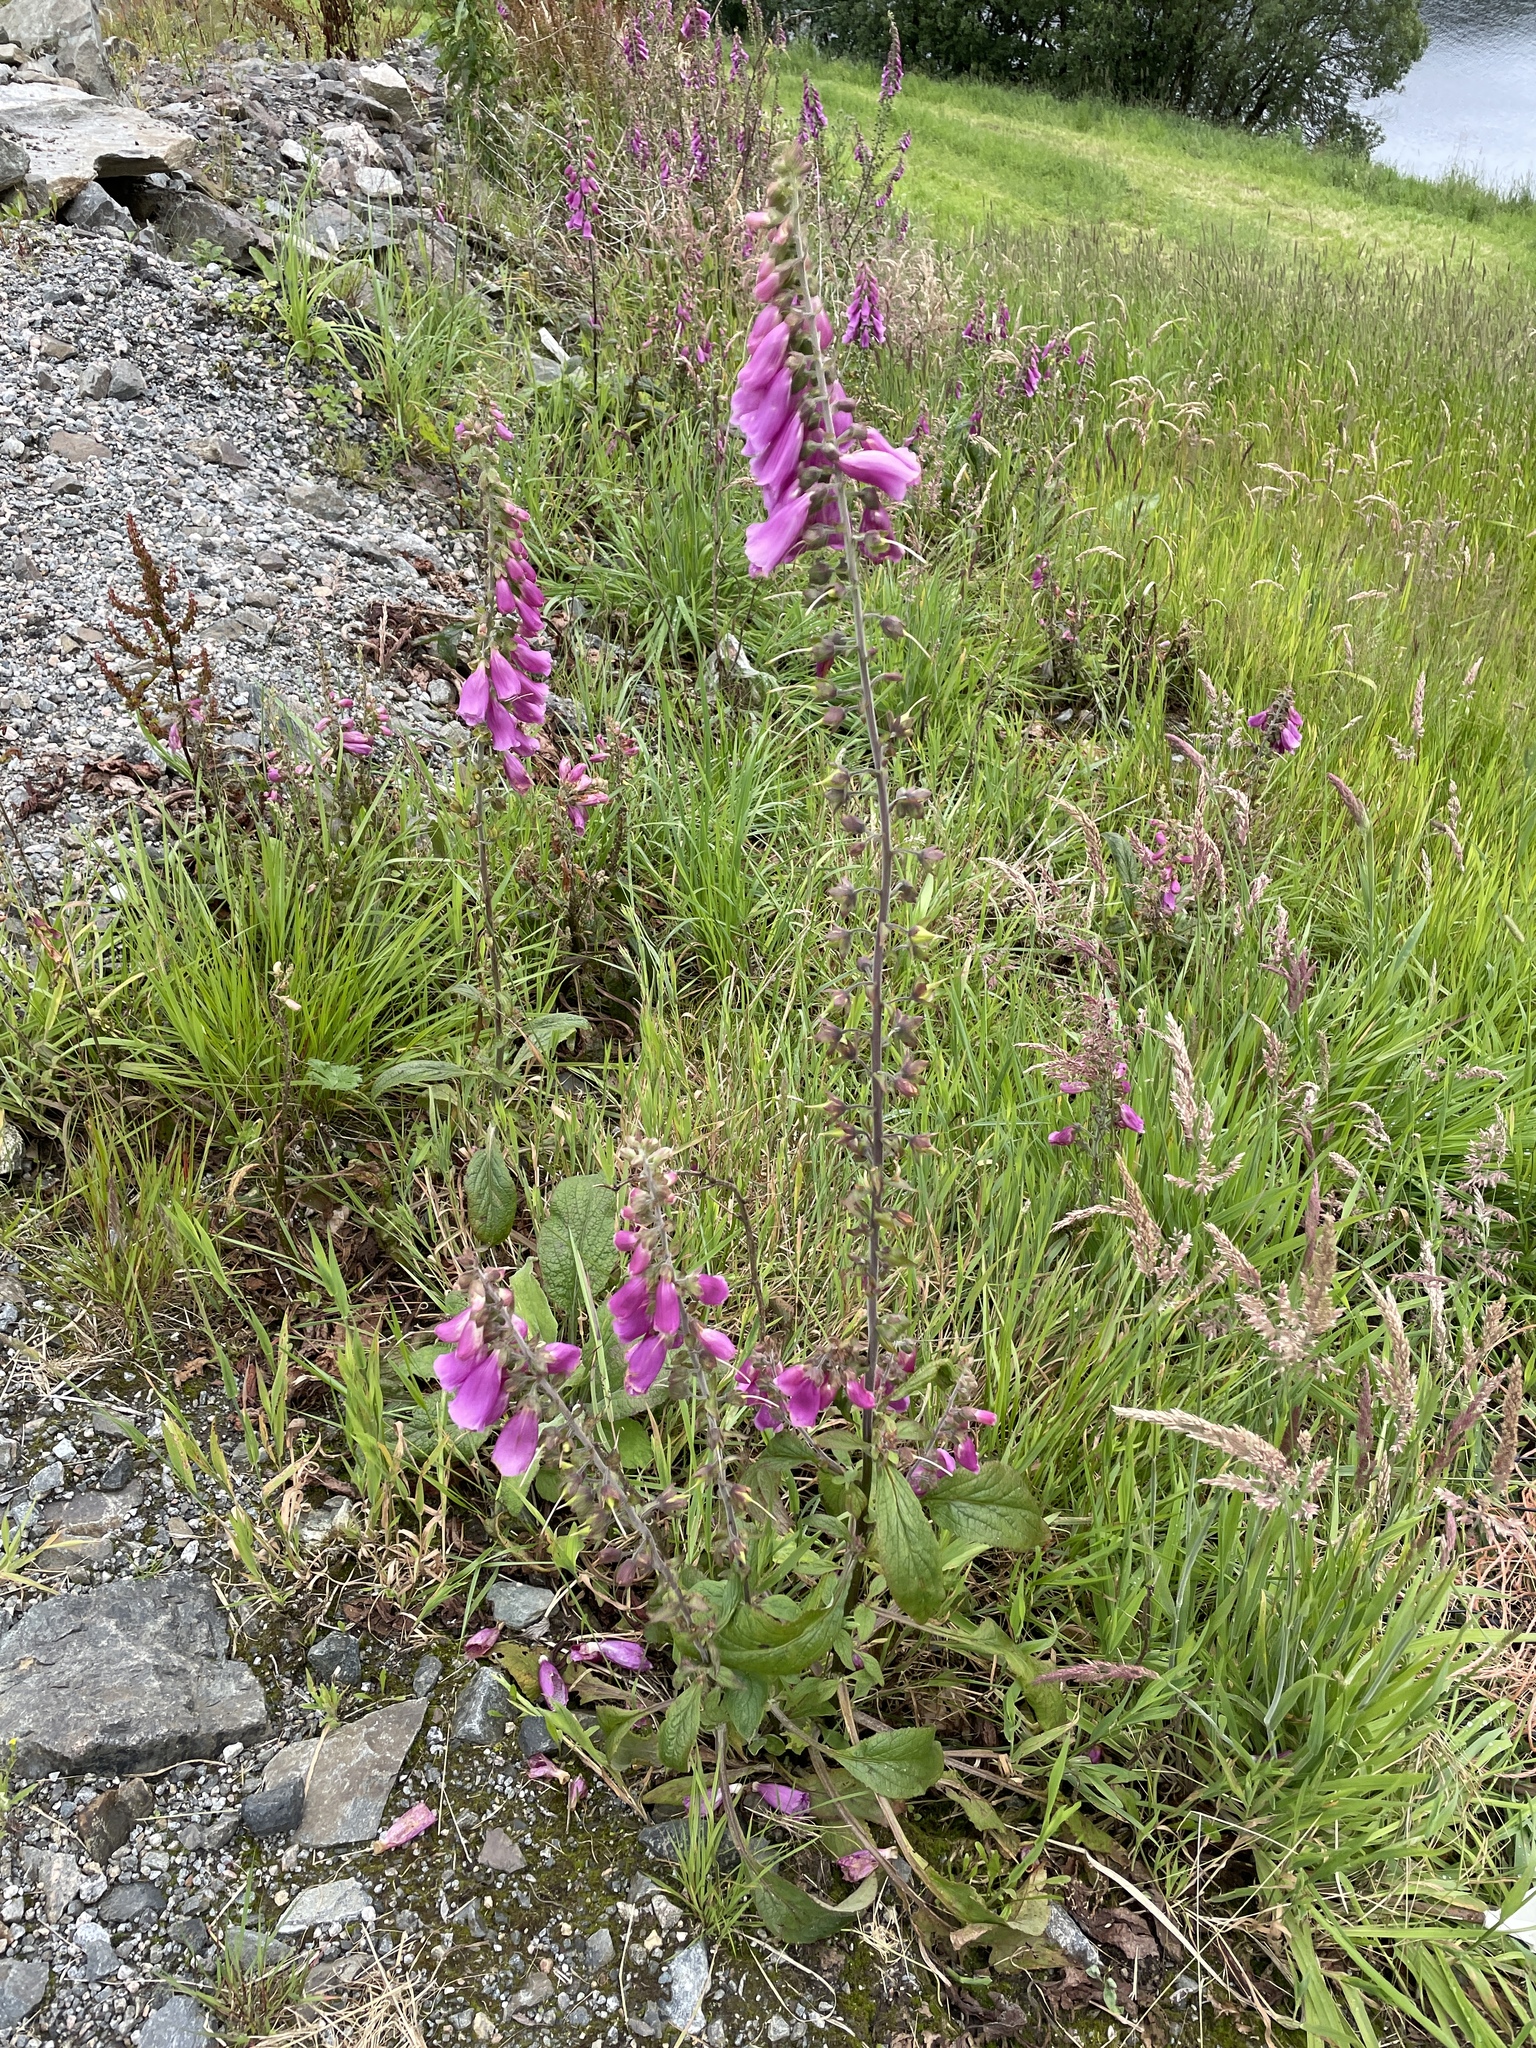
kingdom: Plantae
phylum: Tracheophyta
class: Magnoliopsida
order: Lamiales
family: Plantaginaceae
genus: Digitalis
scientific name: Digitalis purpurea
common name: Foxglove
